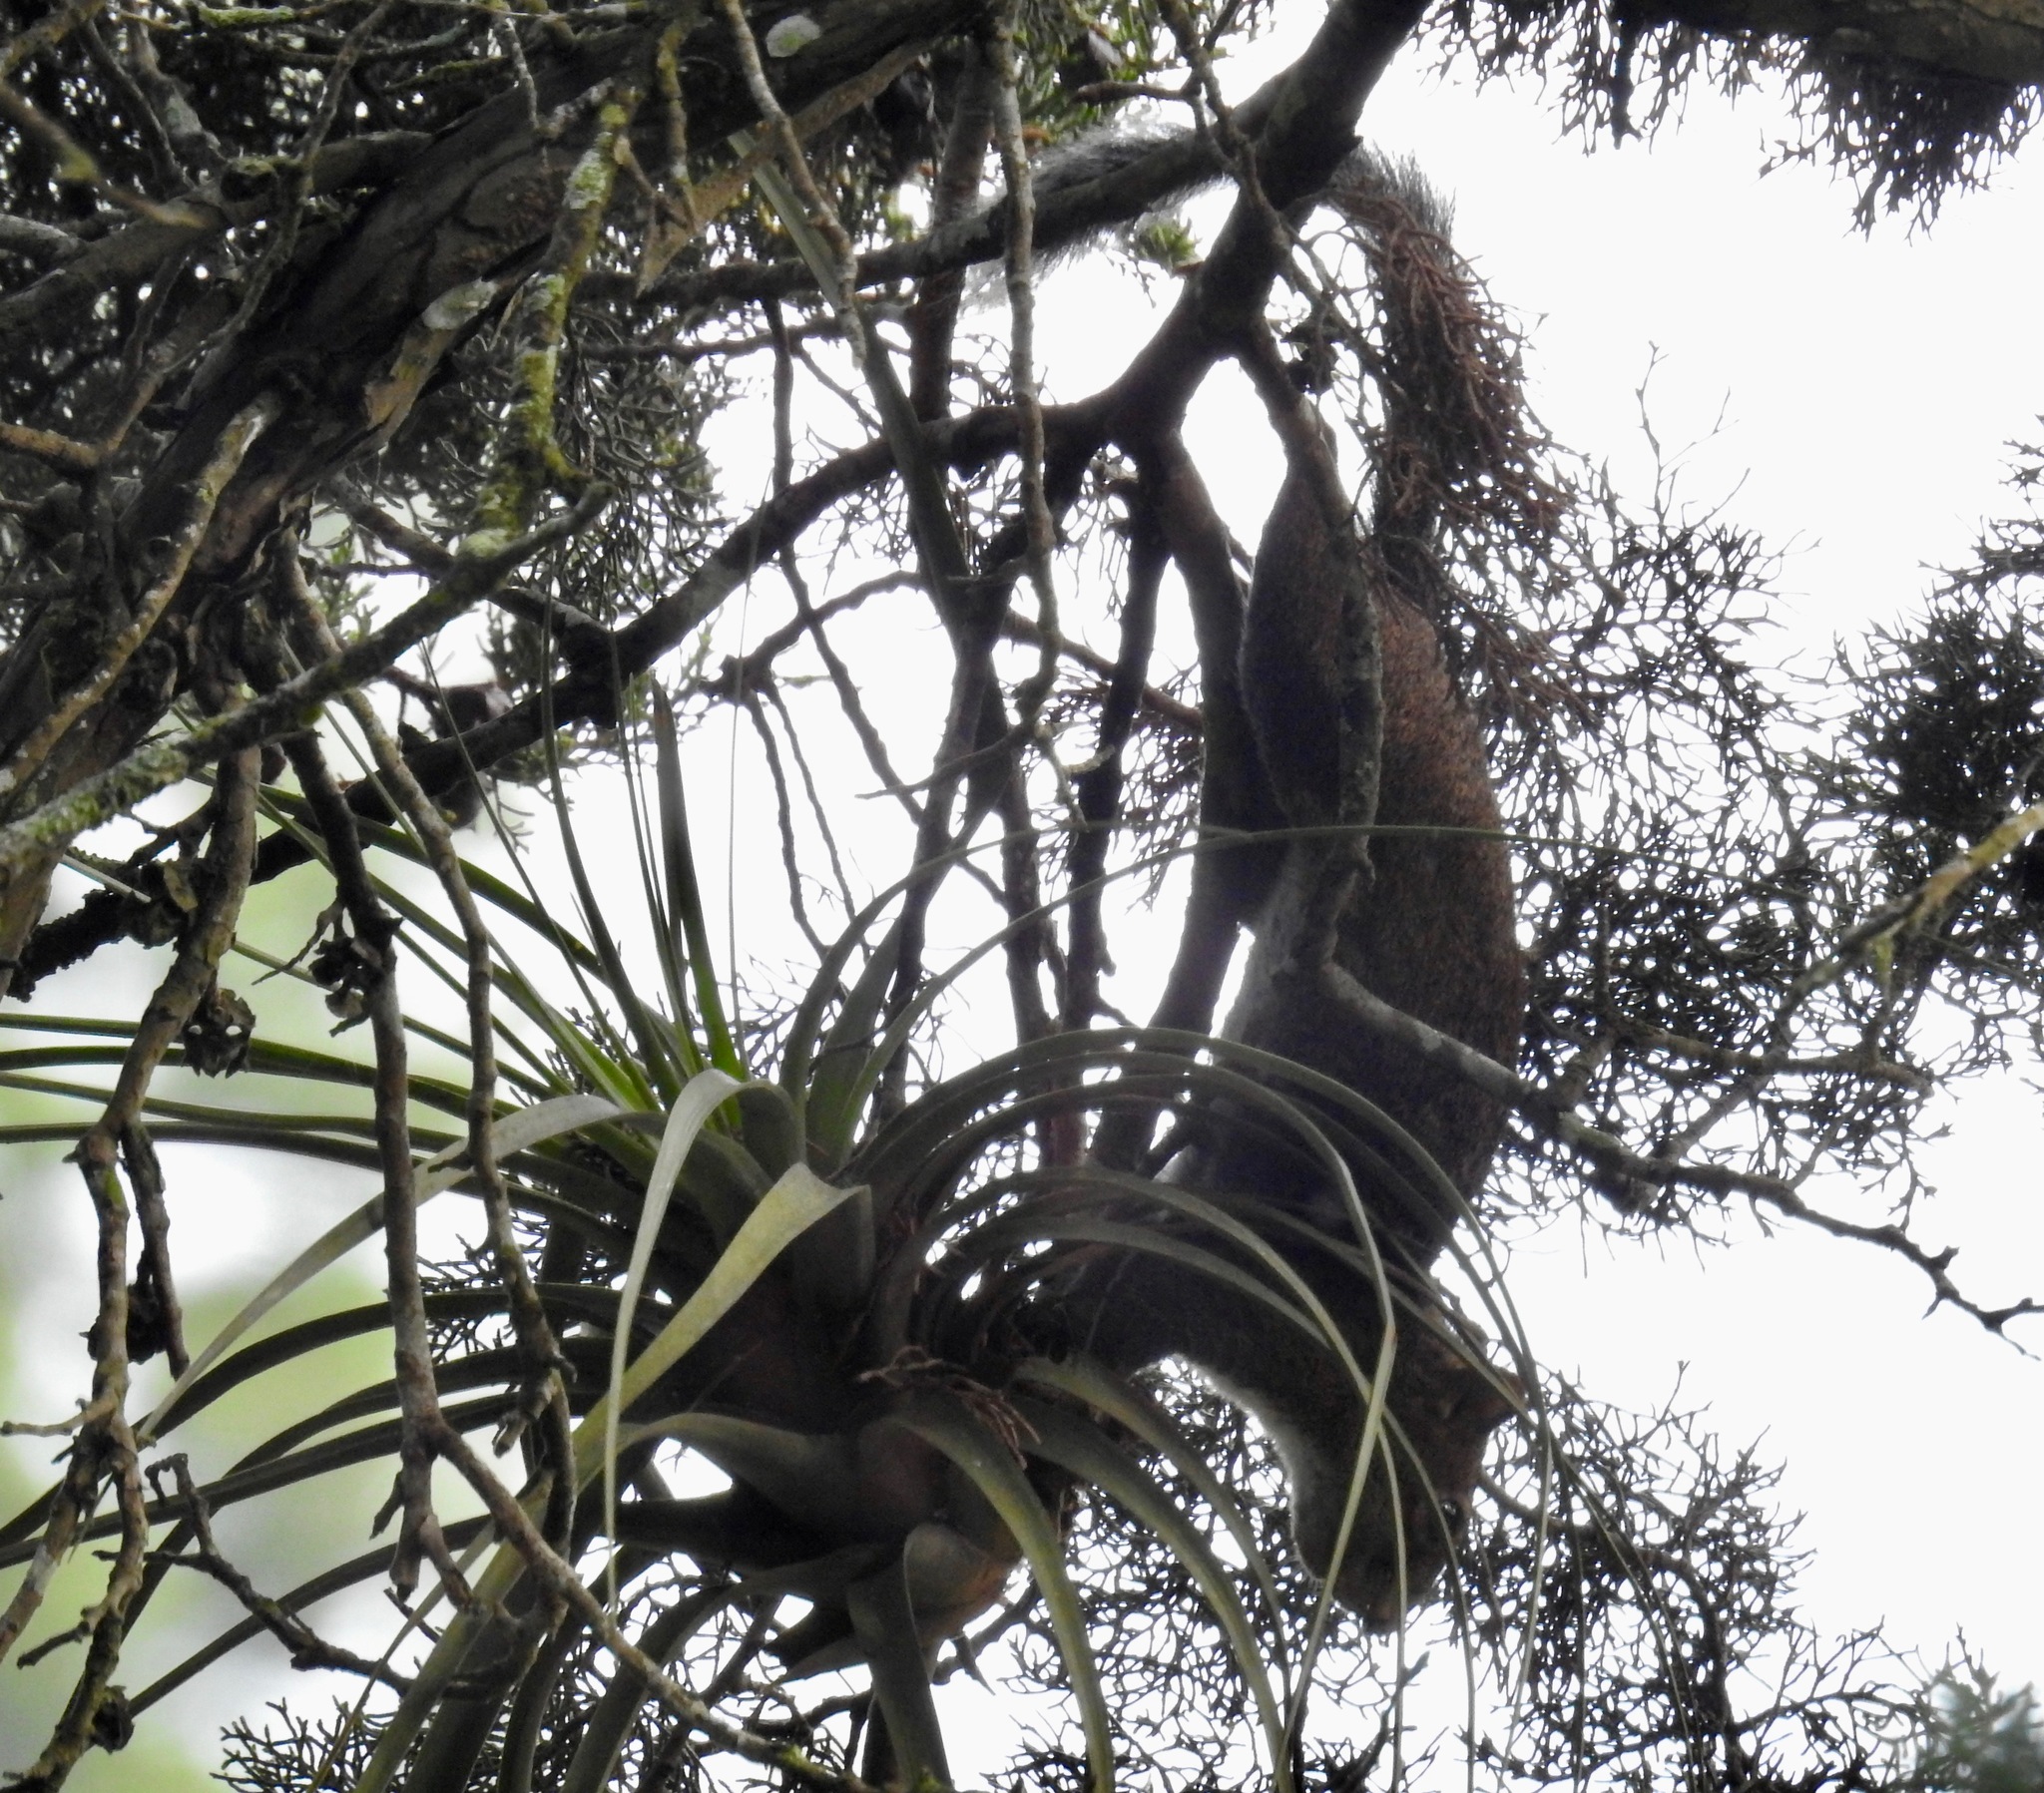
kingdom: Animalia
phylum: Chordata
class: Mammalia
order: Rodentia
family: Sciuridae
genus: Sciurus
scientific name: Sciurus deppei
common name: Deppe's squirrel
